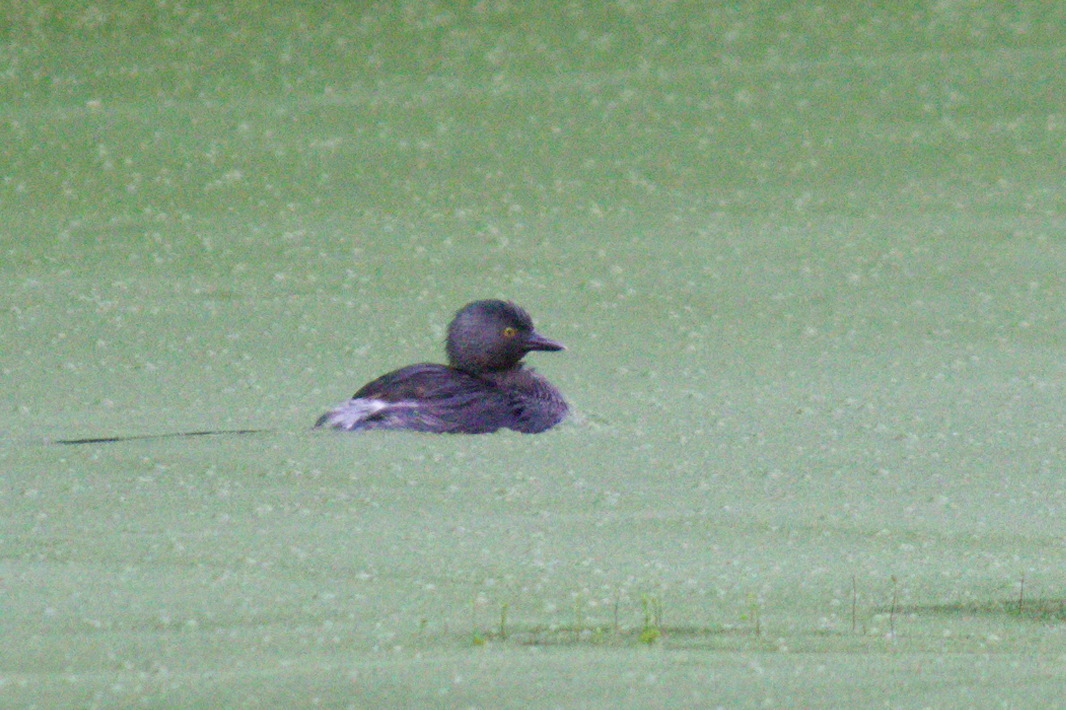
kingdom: Animalia
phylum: Chordata
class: Aves
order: Podicipediformes
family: Podicipedidae
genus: Tachybaptus
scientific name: Tachybaptus dominicus
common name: Least grebe
